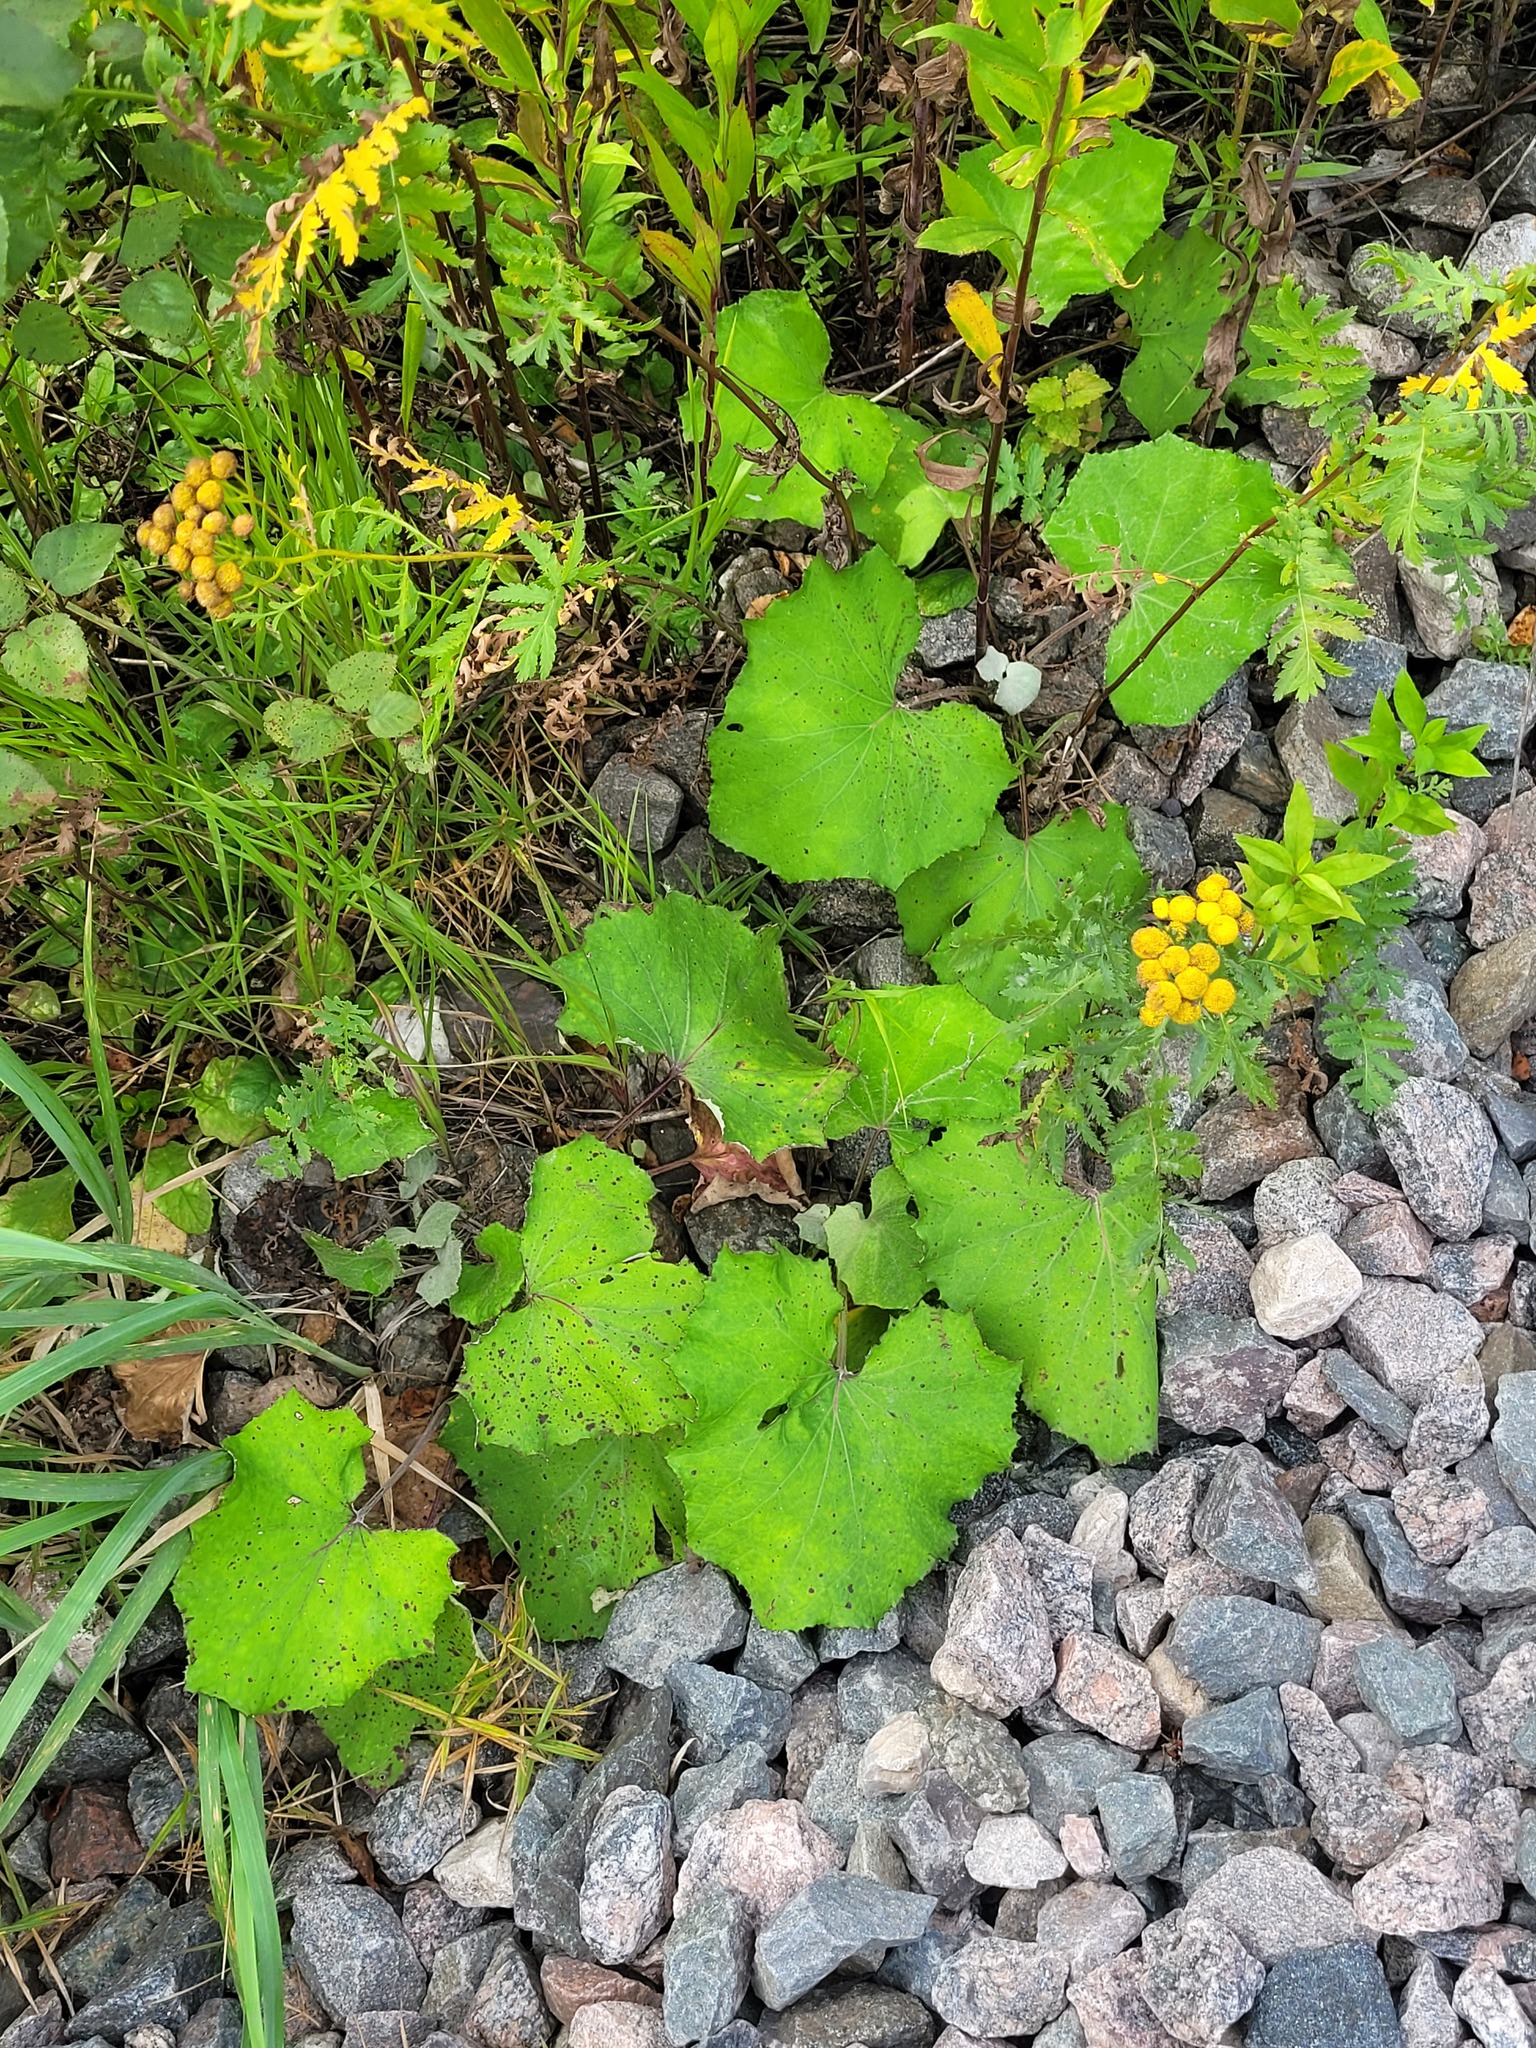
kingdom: Plantae
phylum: Tracheophyta
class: Magnoliopsida
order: Asterales
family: Asteraceae
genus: Tussilago
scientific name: Tussilago farfara
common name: Coltsfoot
